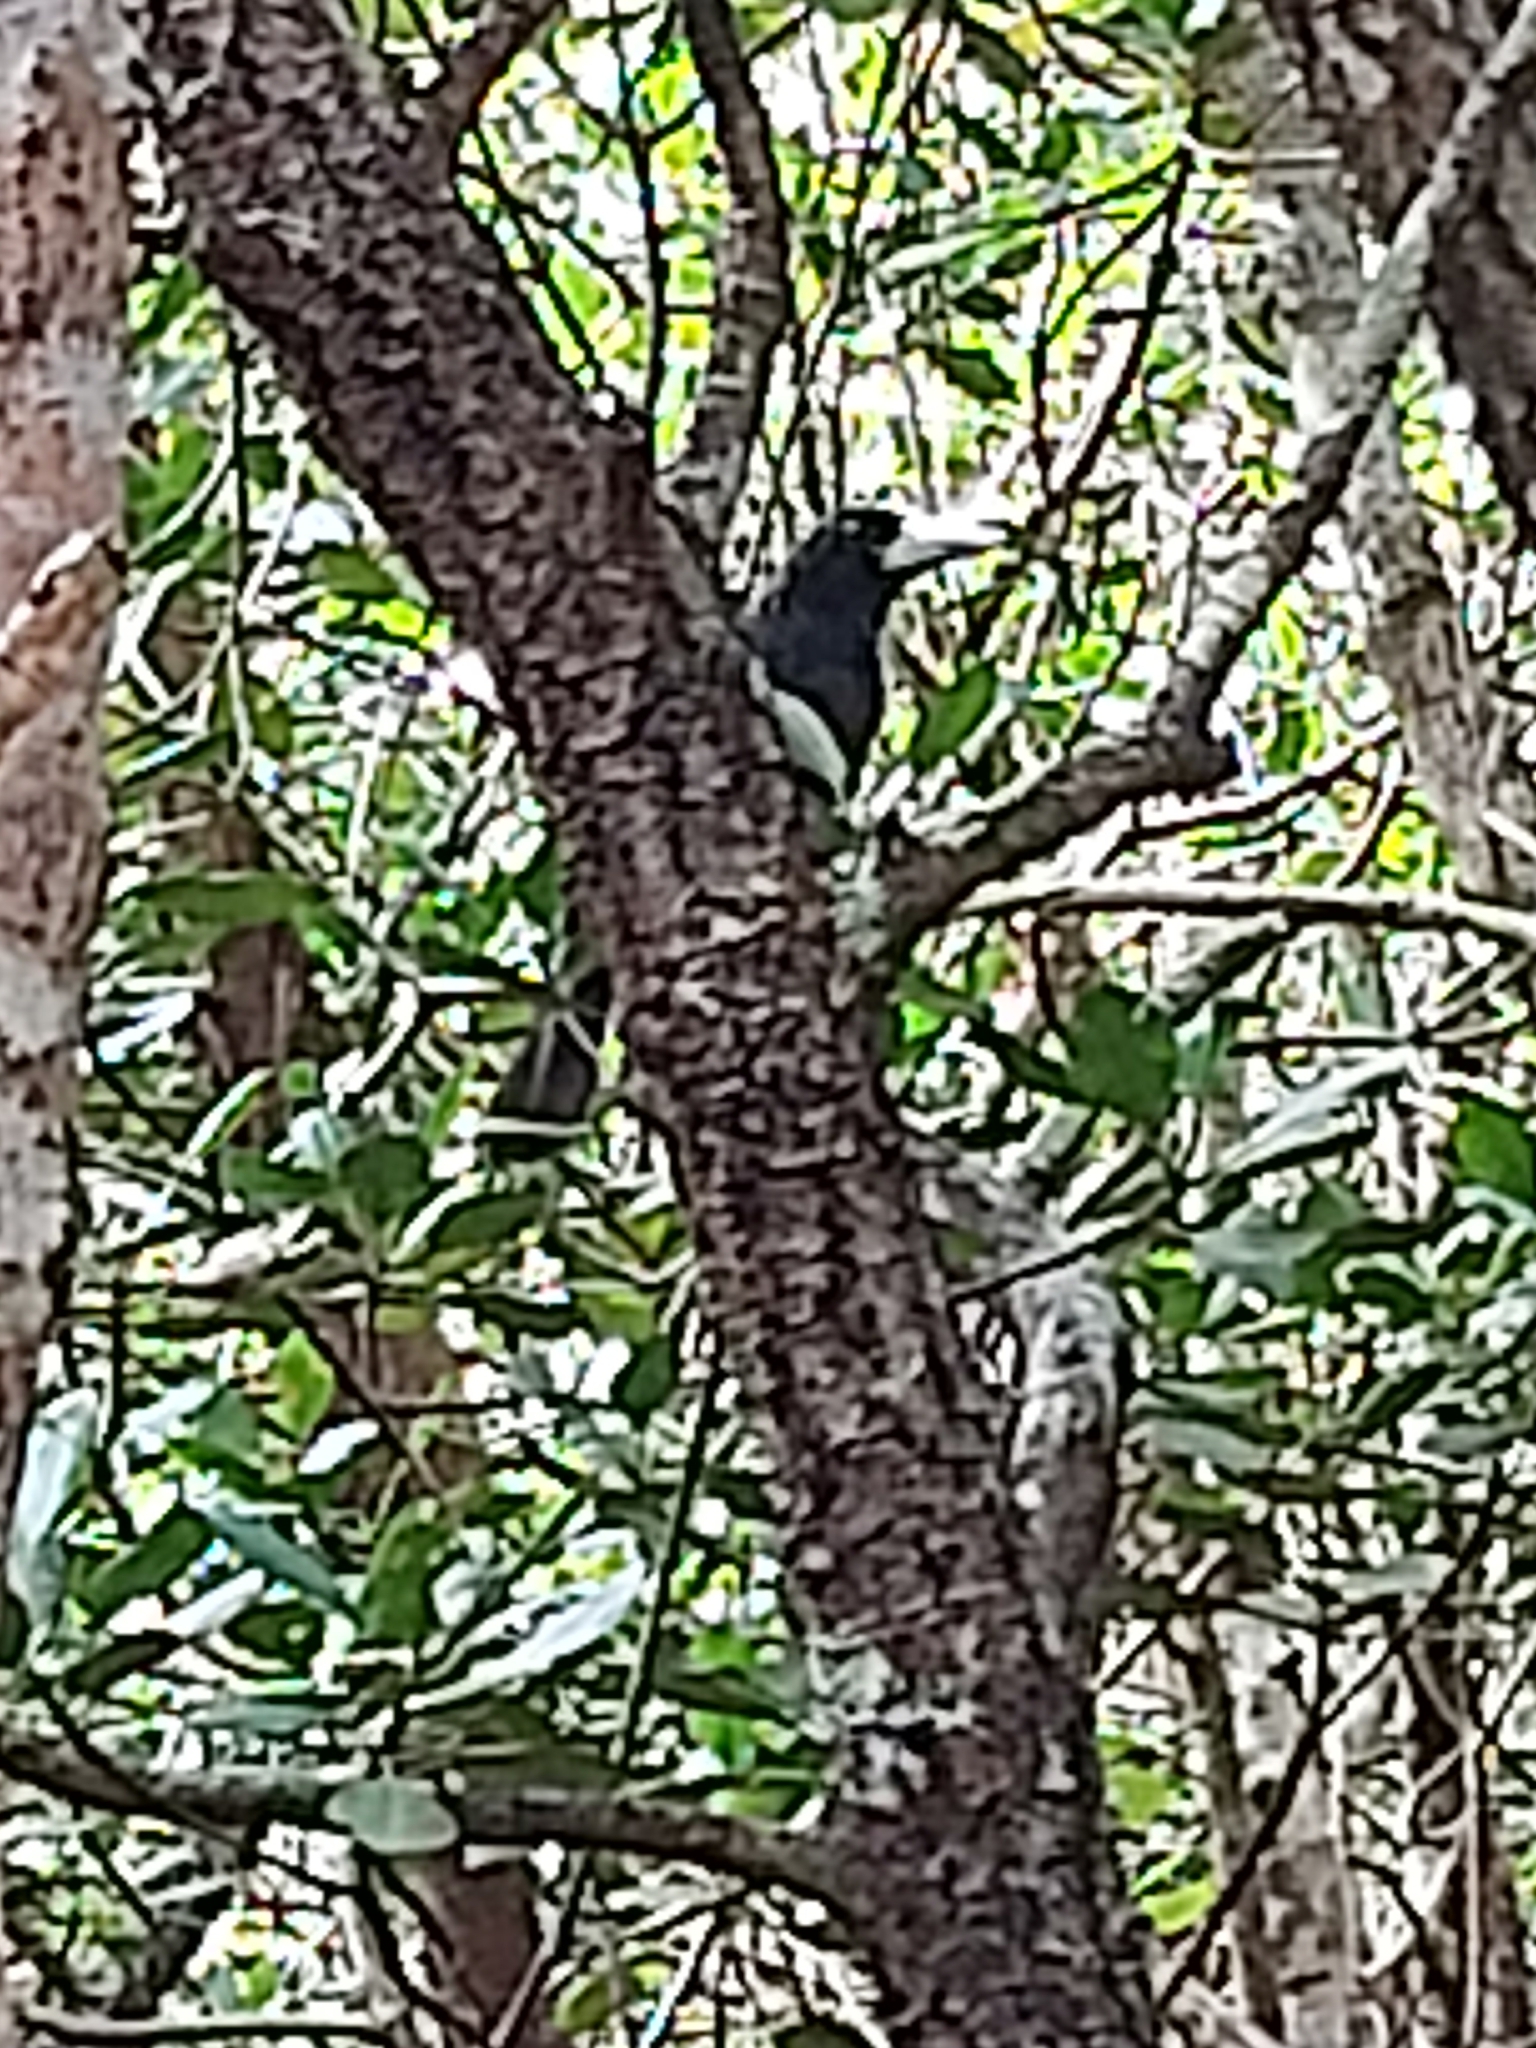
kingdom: Animalia
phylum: Chordata
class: Aves
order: Passeriformes
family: Artamidae
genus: Melloria
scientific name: Melloria quoyi
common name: Black butcherbird
